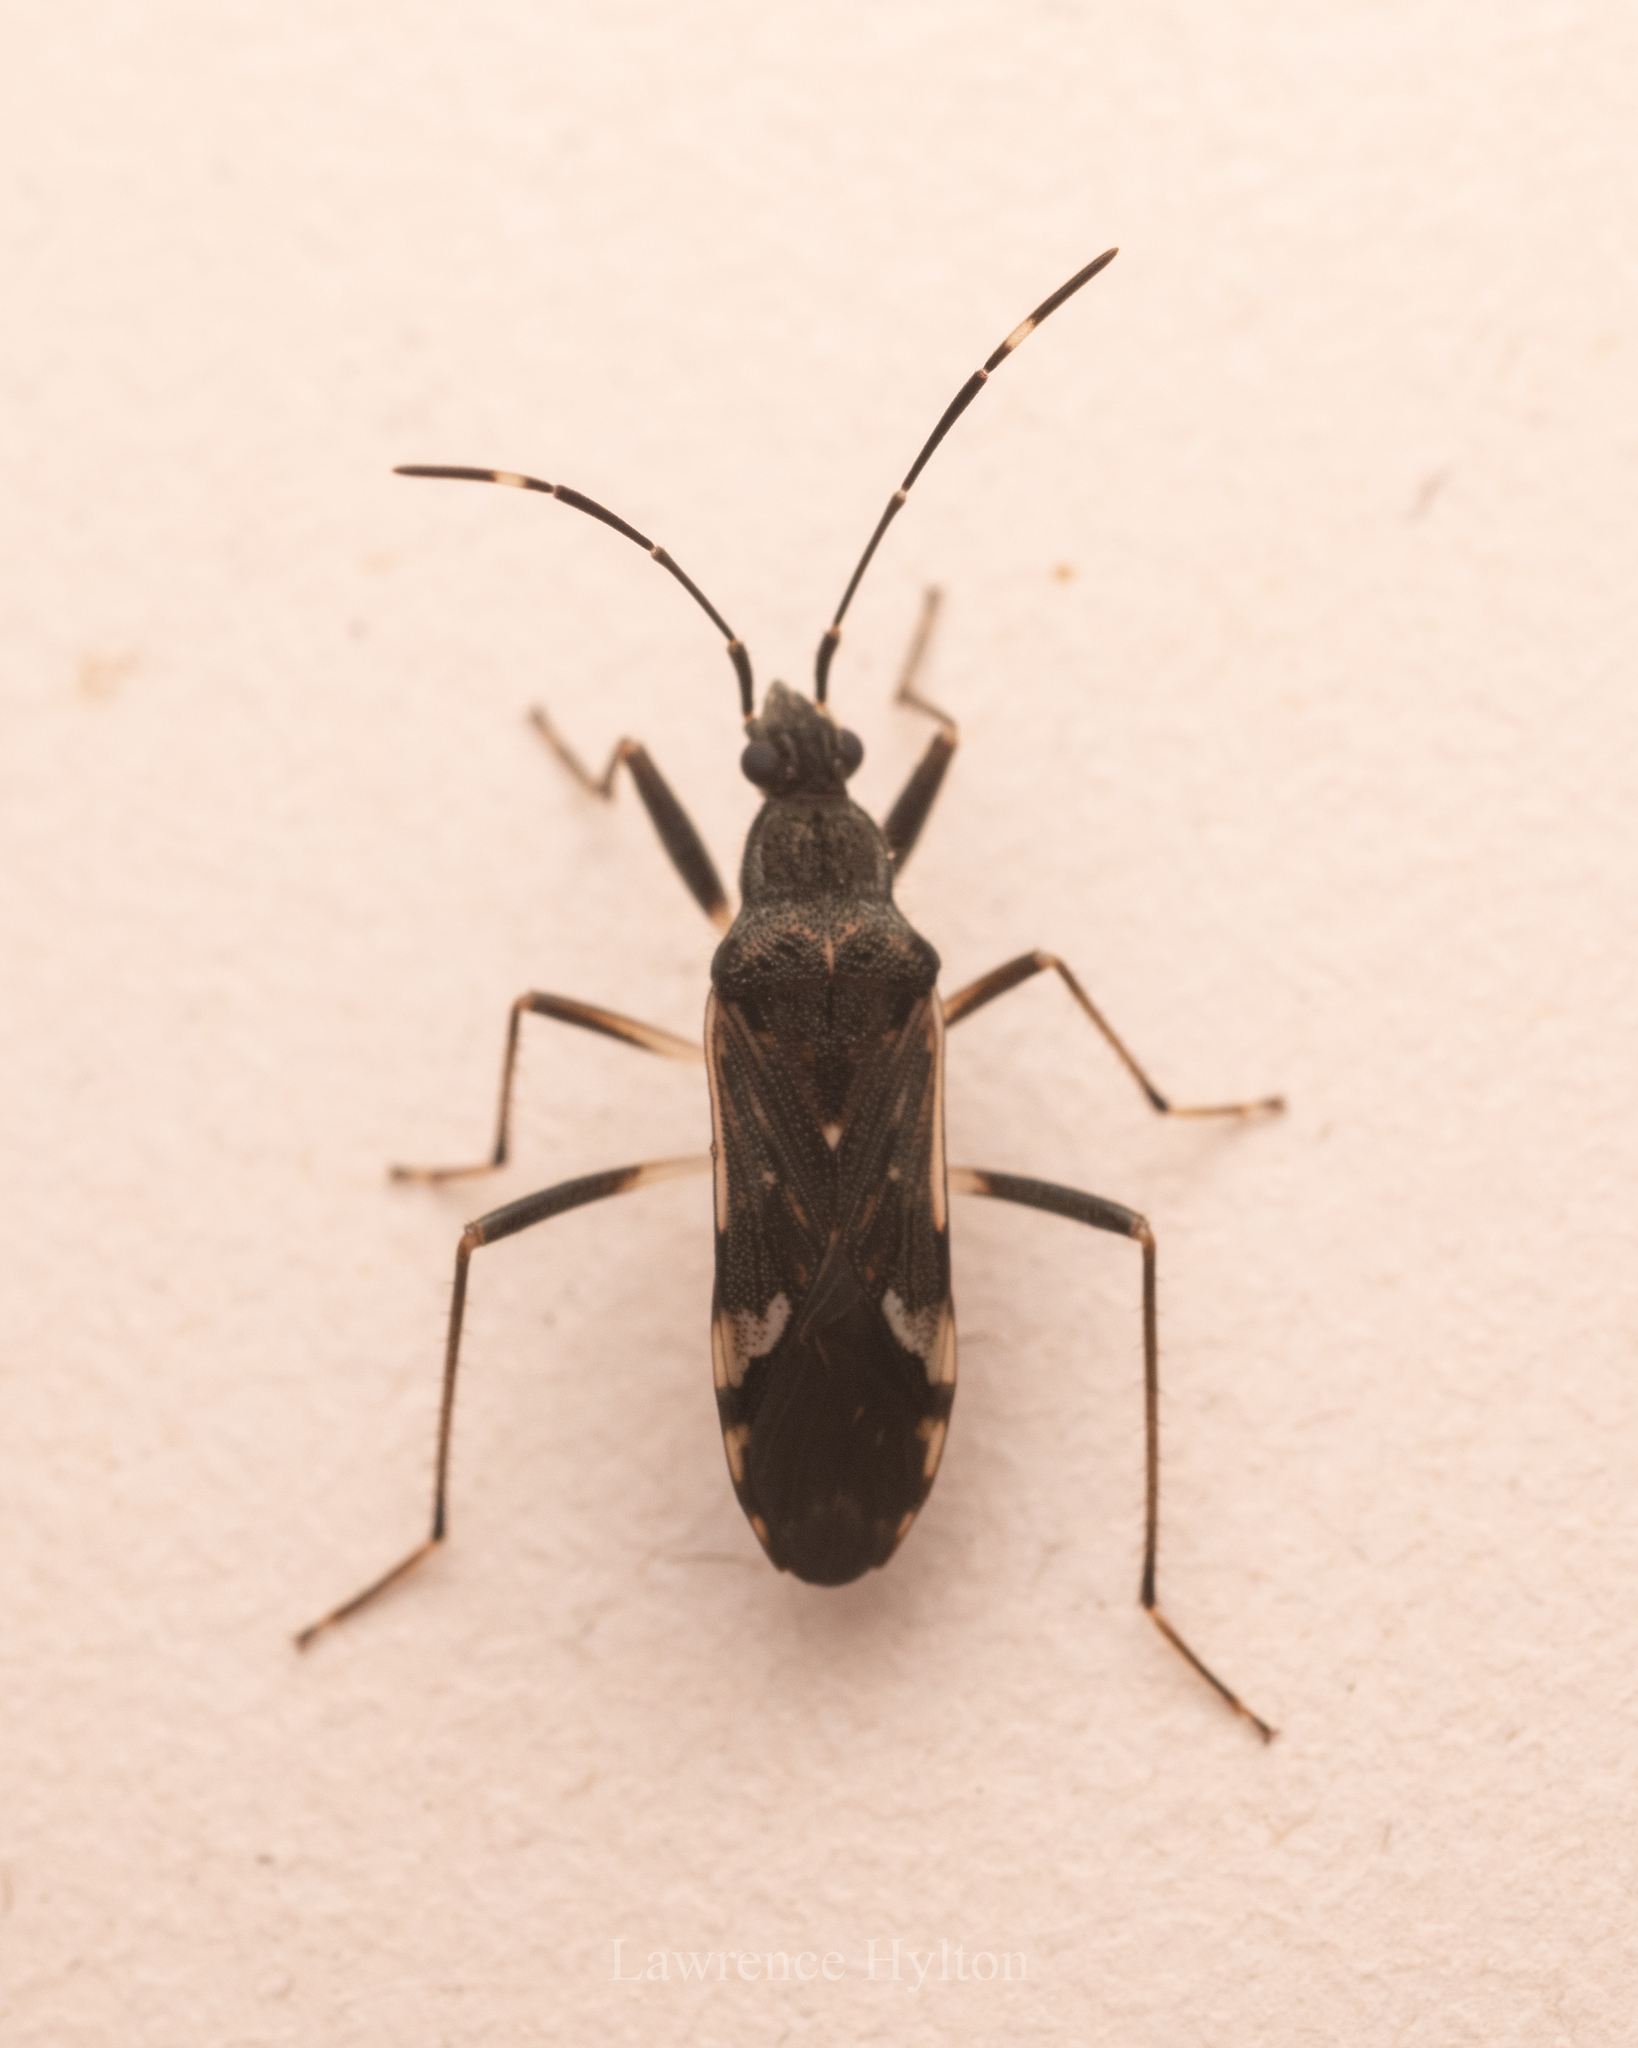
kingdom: Animalia
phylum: Arthropoda
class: Insecta
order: Hemiptera
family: Rhyparochromidae
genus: Metochus
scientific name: Metochus hainanensis
